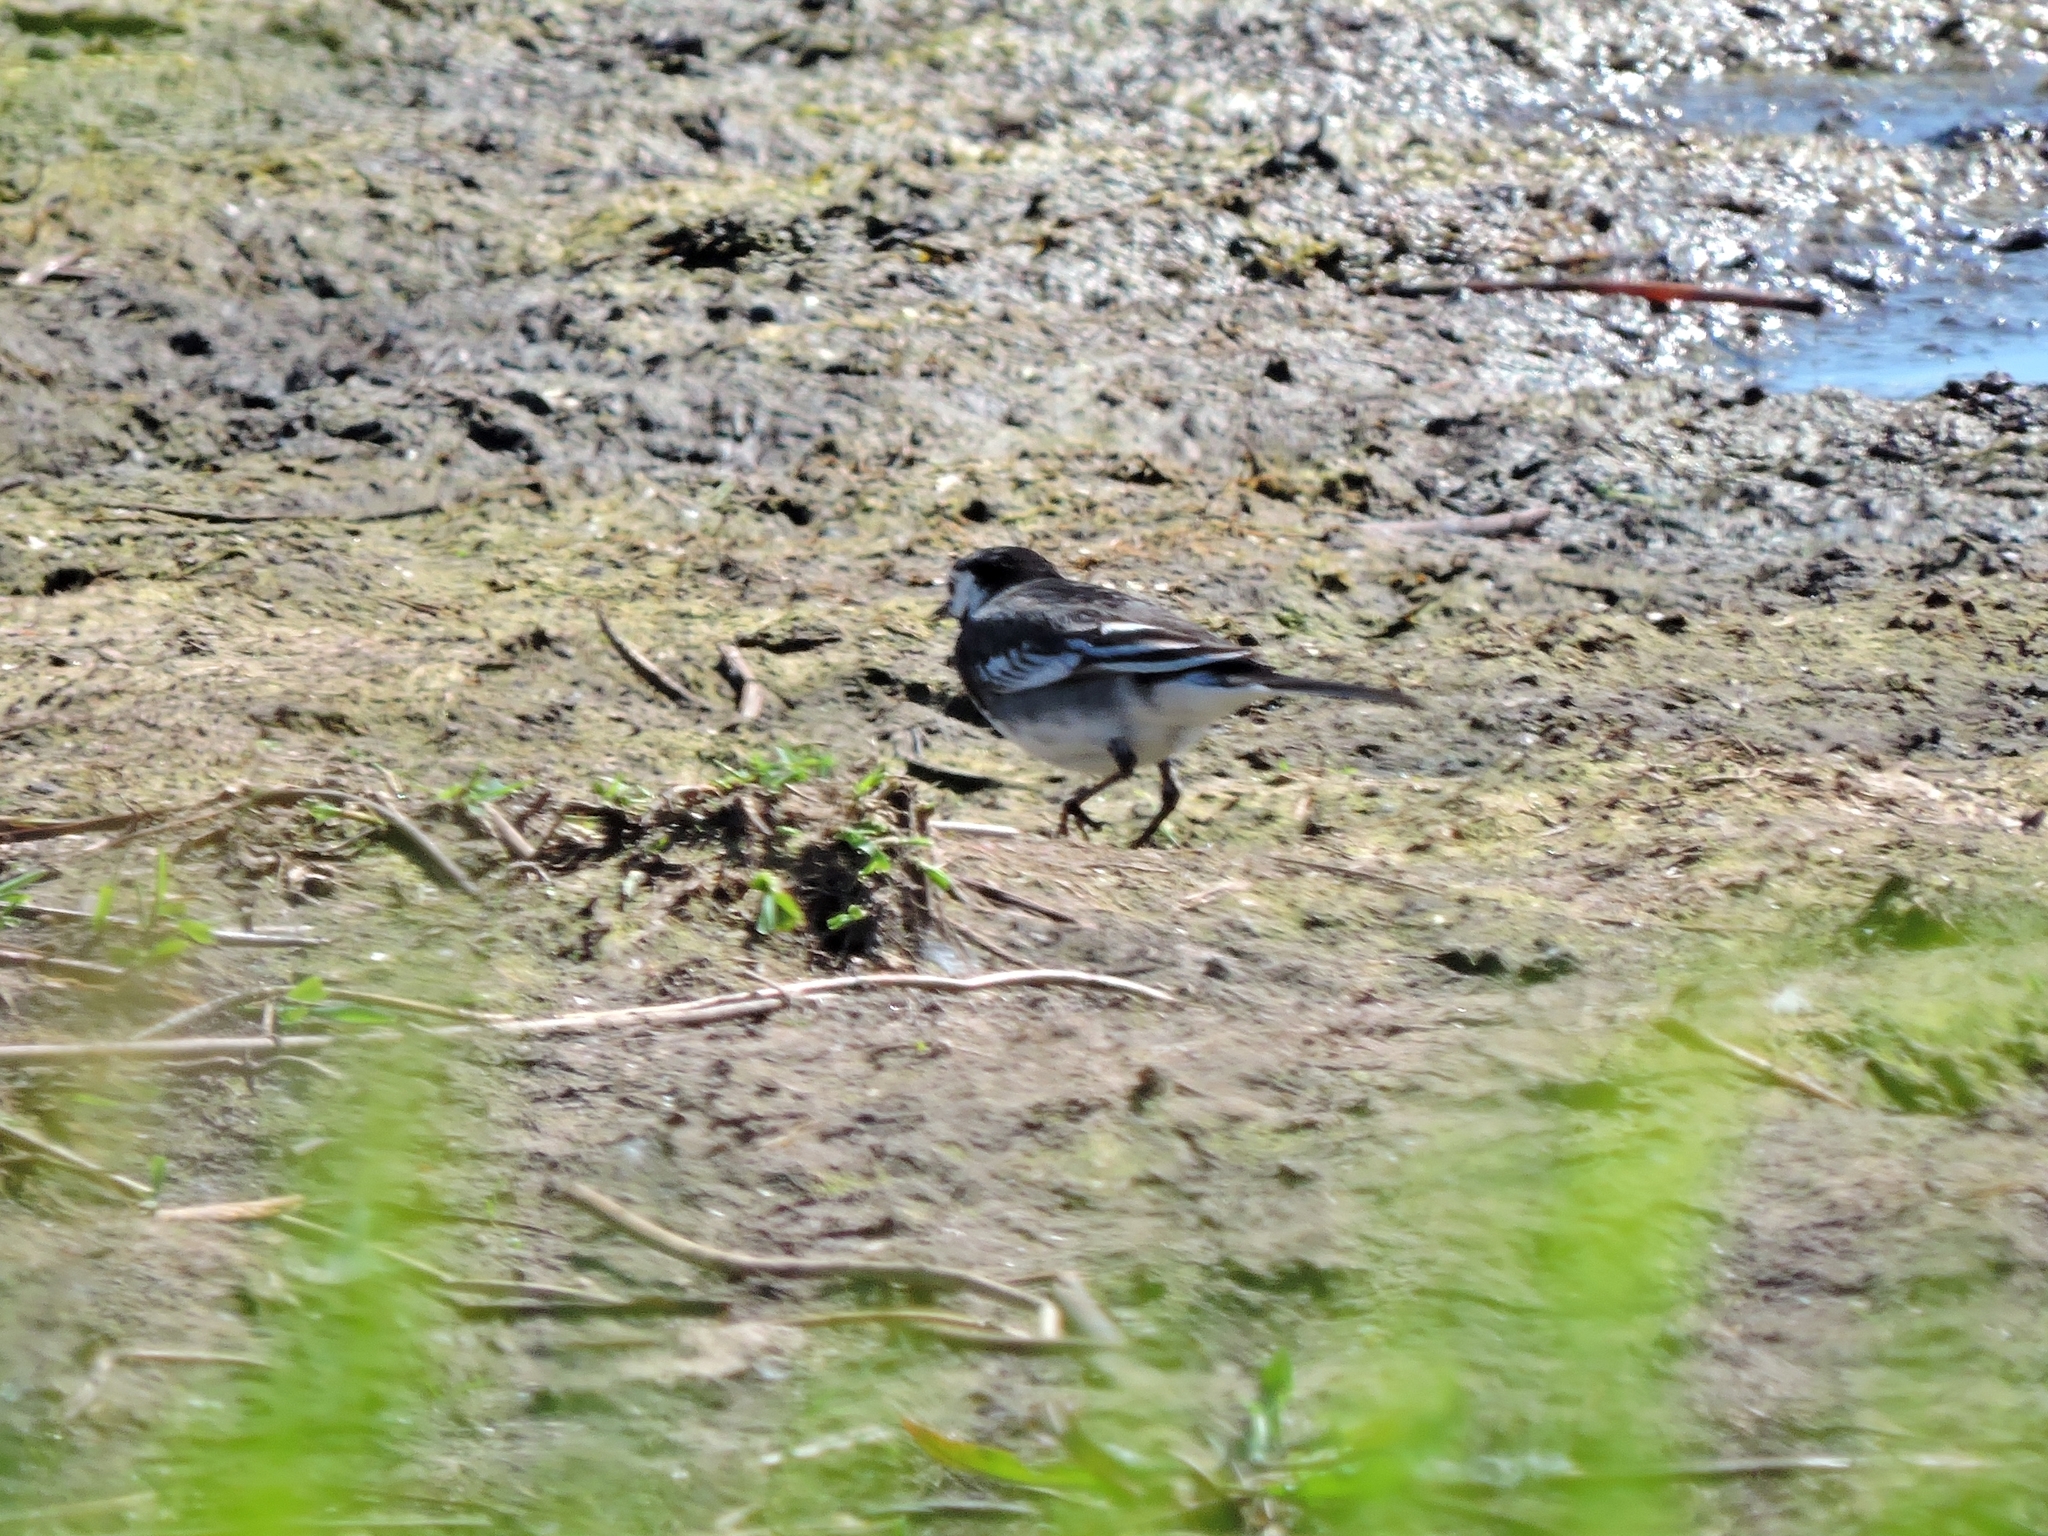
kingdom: Animalia
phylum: Chordata
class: Aves
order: Passeriformes
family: Motacillidae
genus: Motacilla
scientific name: Motacilla alba
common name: White wagtail
